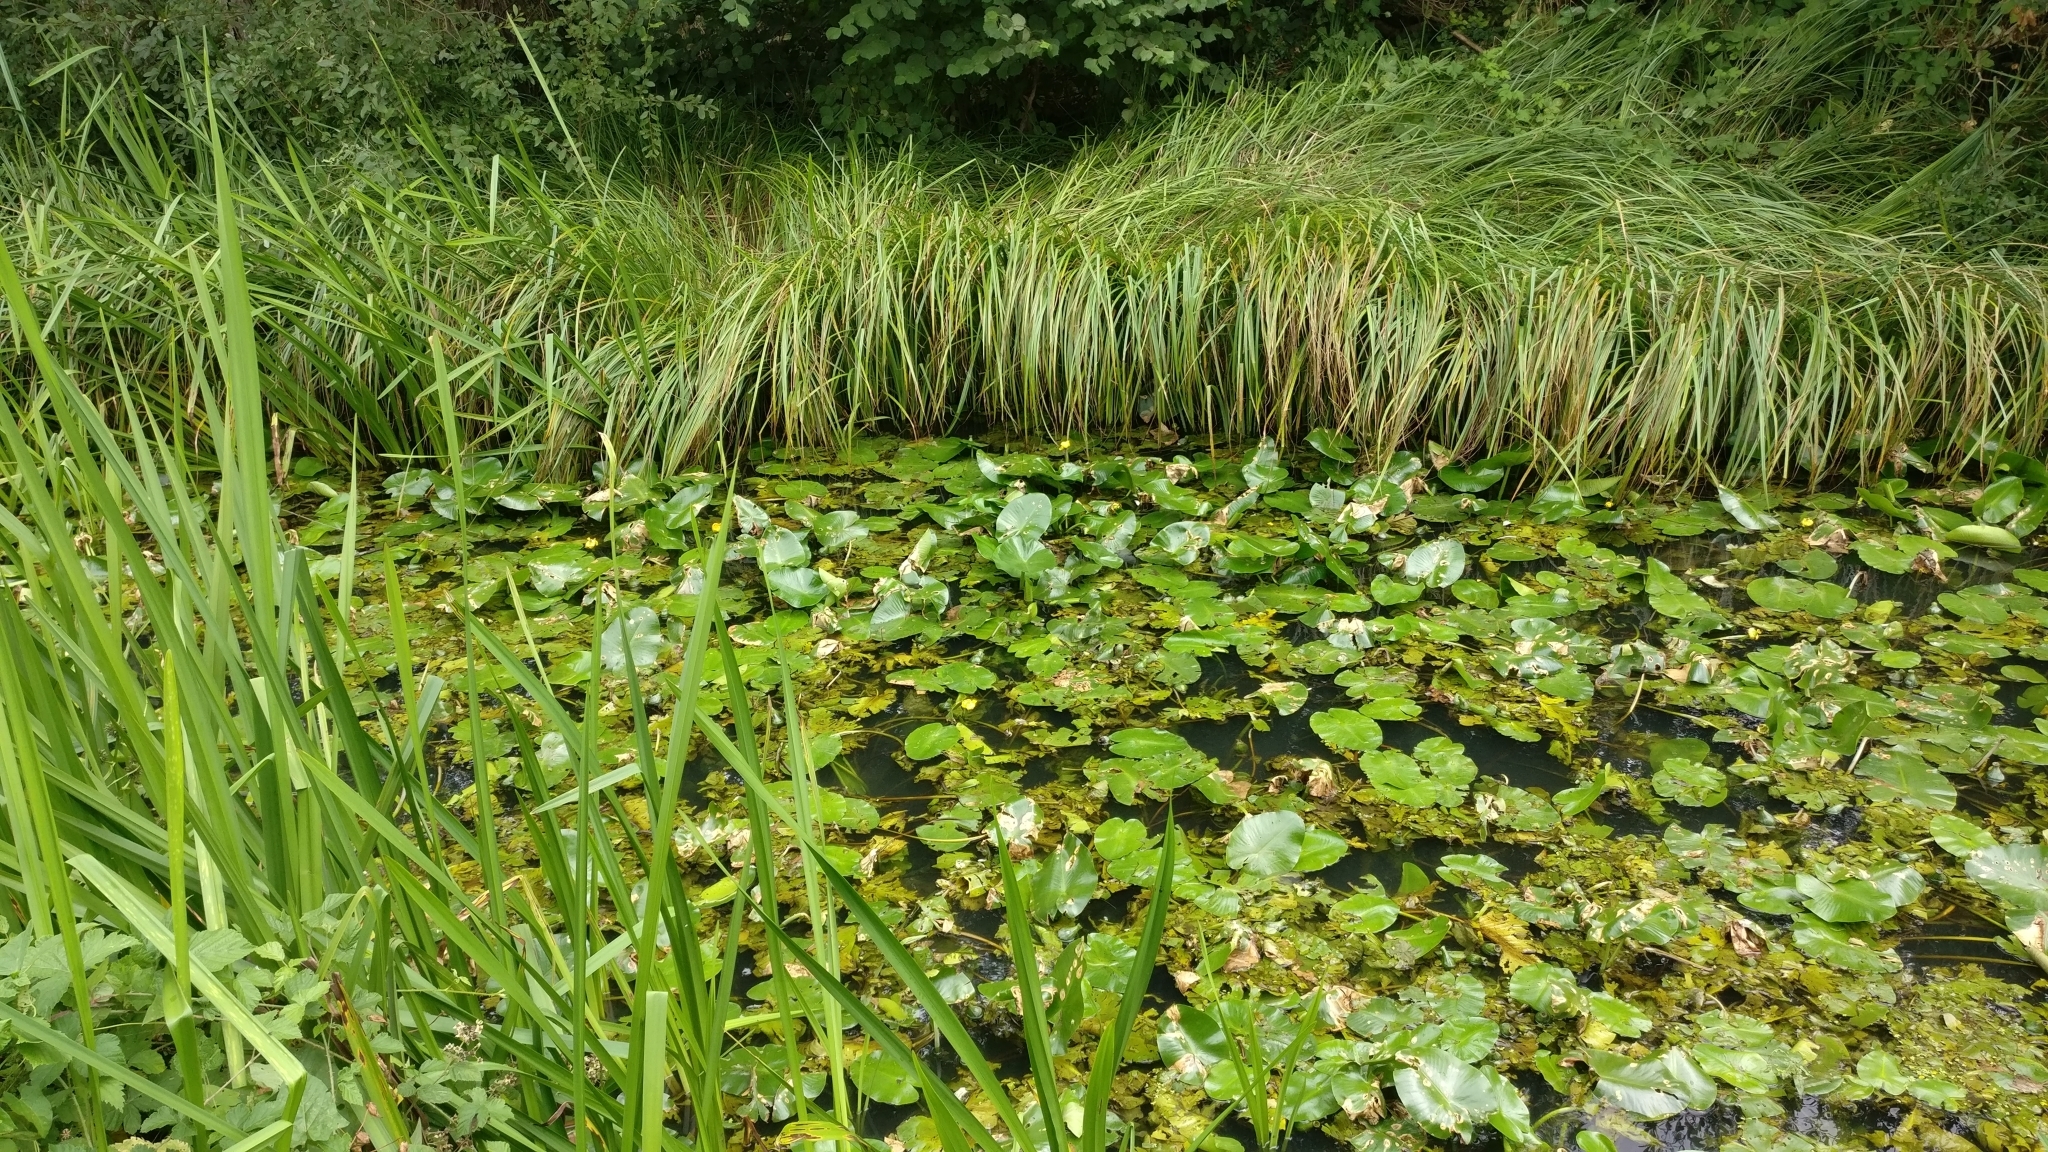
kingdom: Plantae
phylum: Tracheophyta
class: Magnoliopsida
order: Nymphaeales
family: Nymphaeaceae
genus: Nuphar
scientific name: Nuphar lutea
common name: Yellow water-lily
